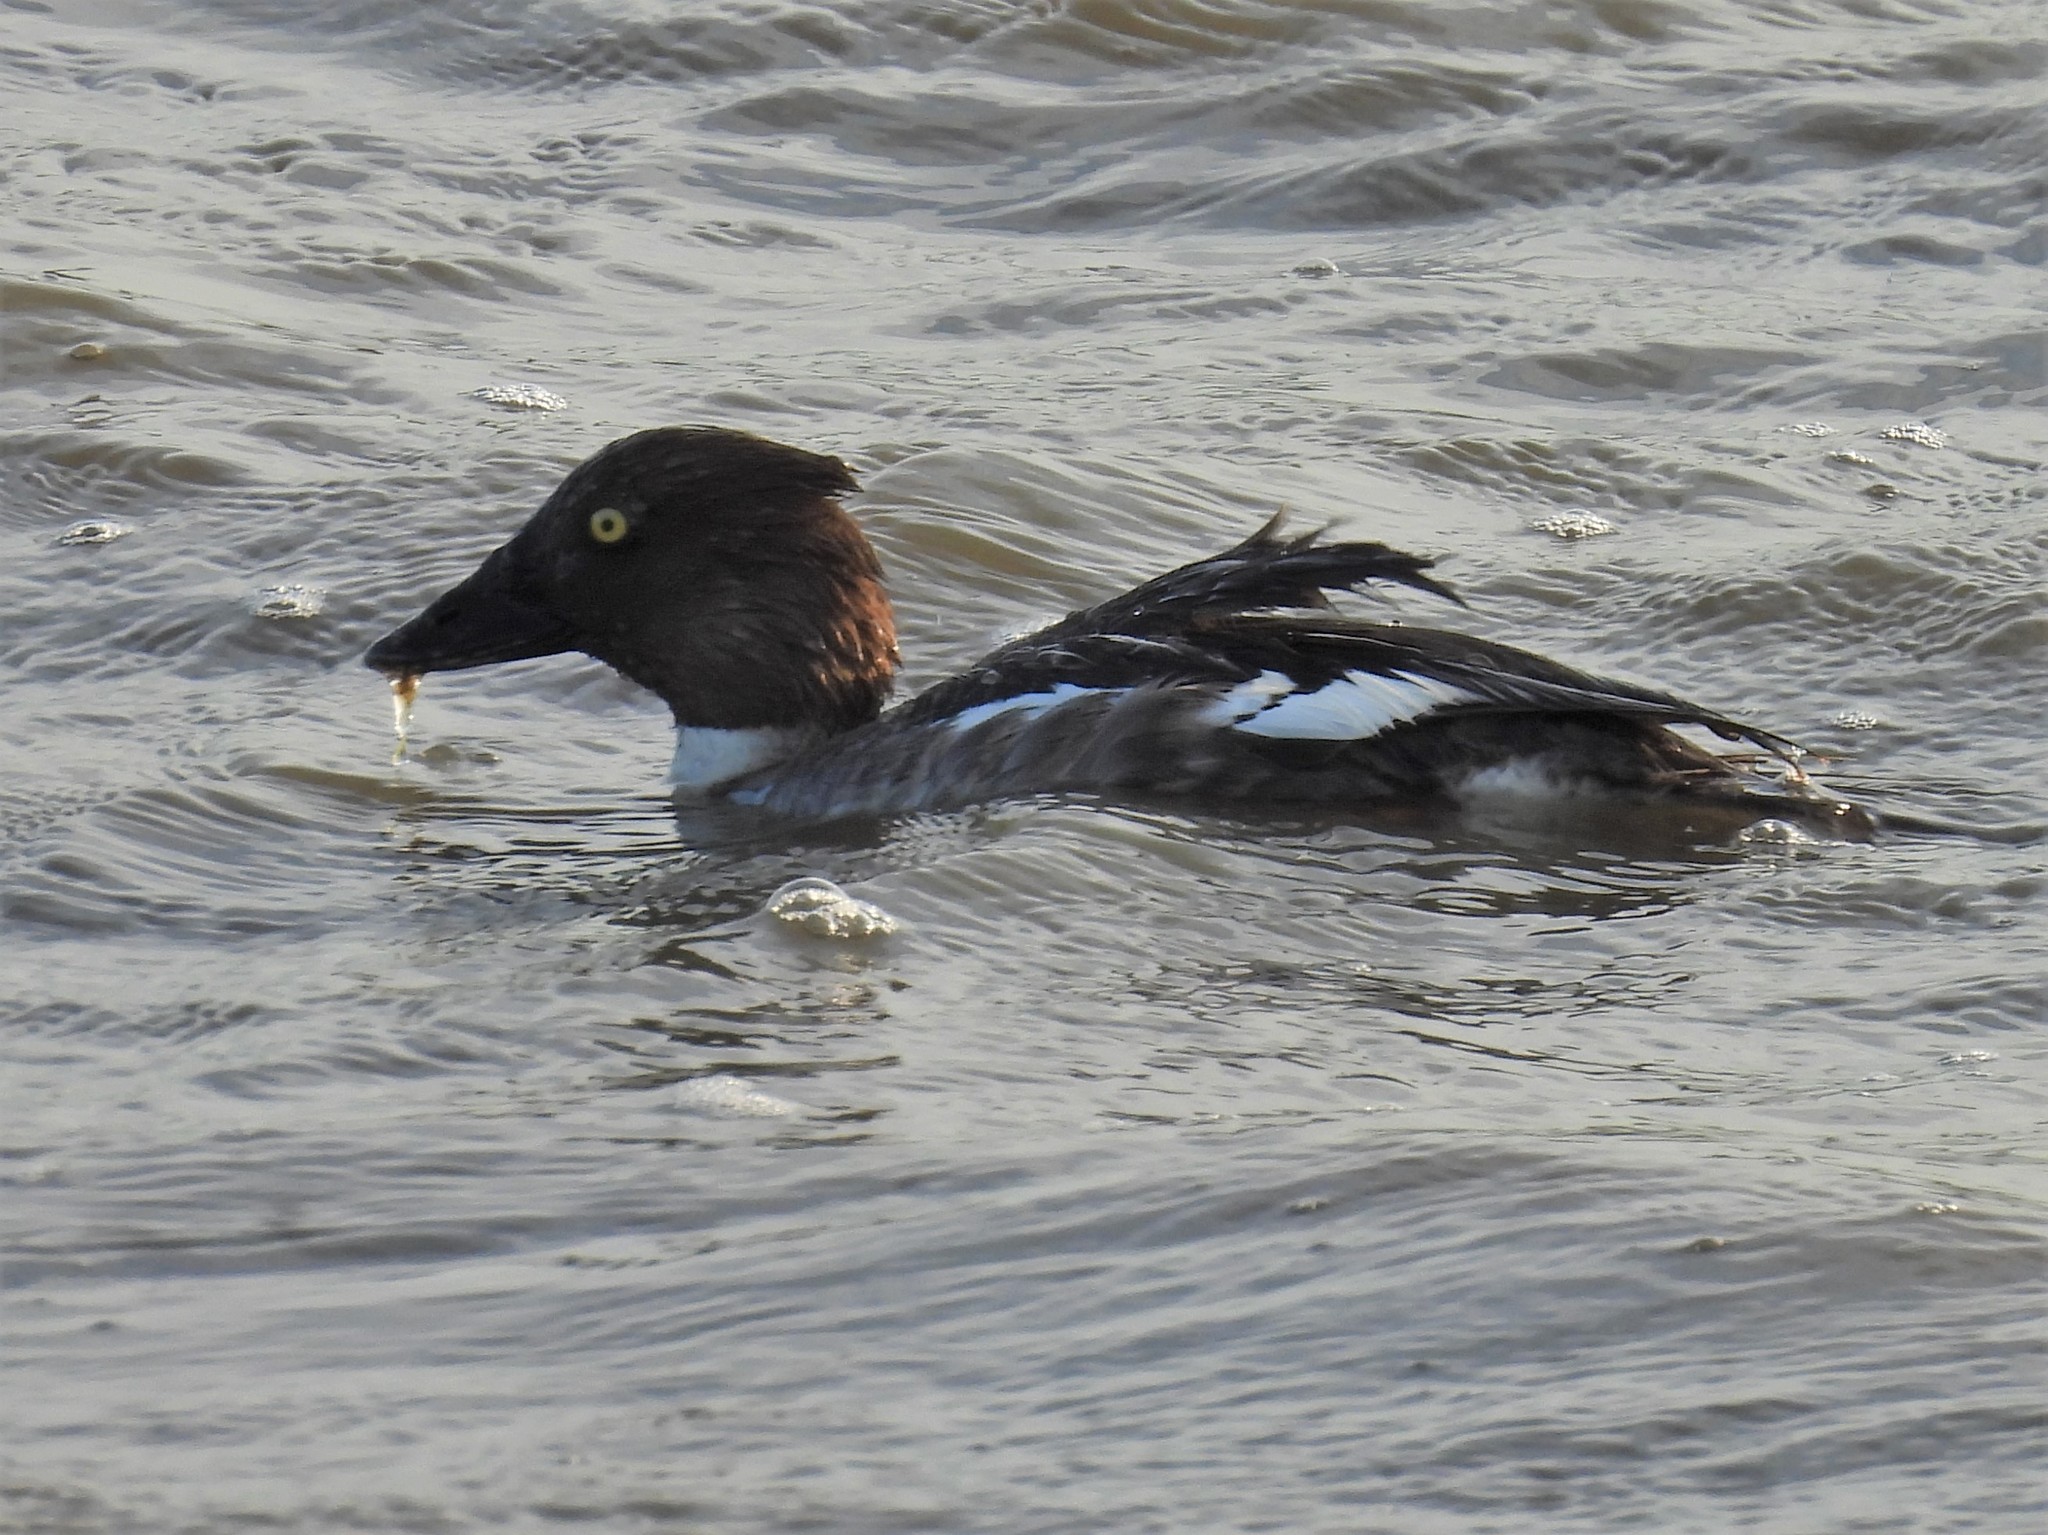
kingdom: Animalia
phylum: Chordata
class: Aves
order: Anseriformes
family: Anatidae
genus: Bucephala
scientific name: Bucephala clangula
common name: Common goldeneye
